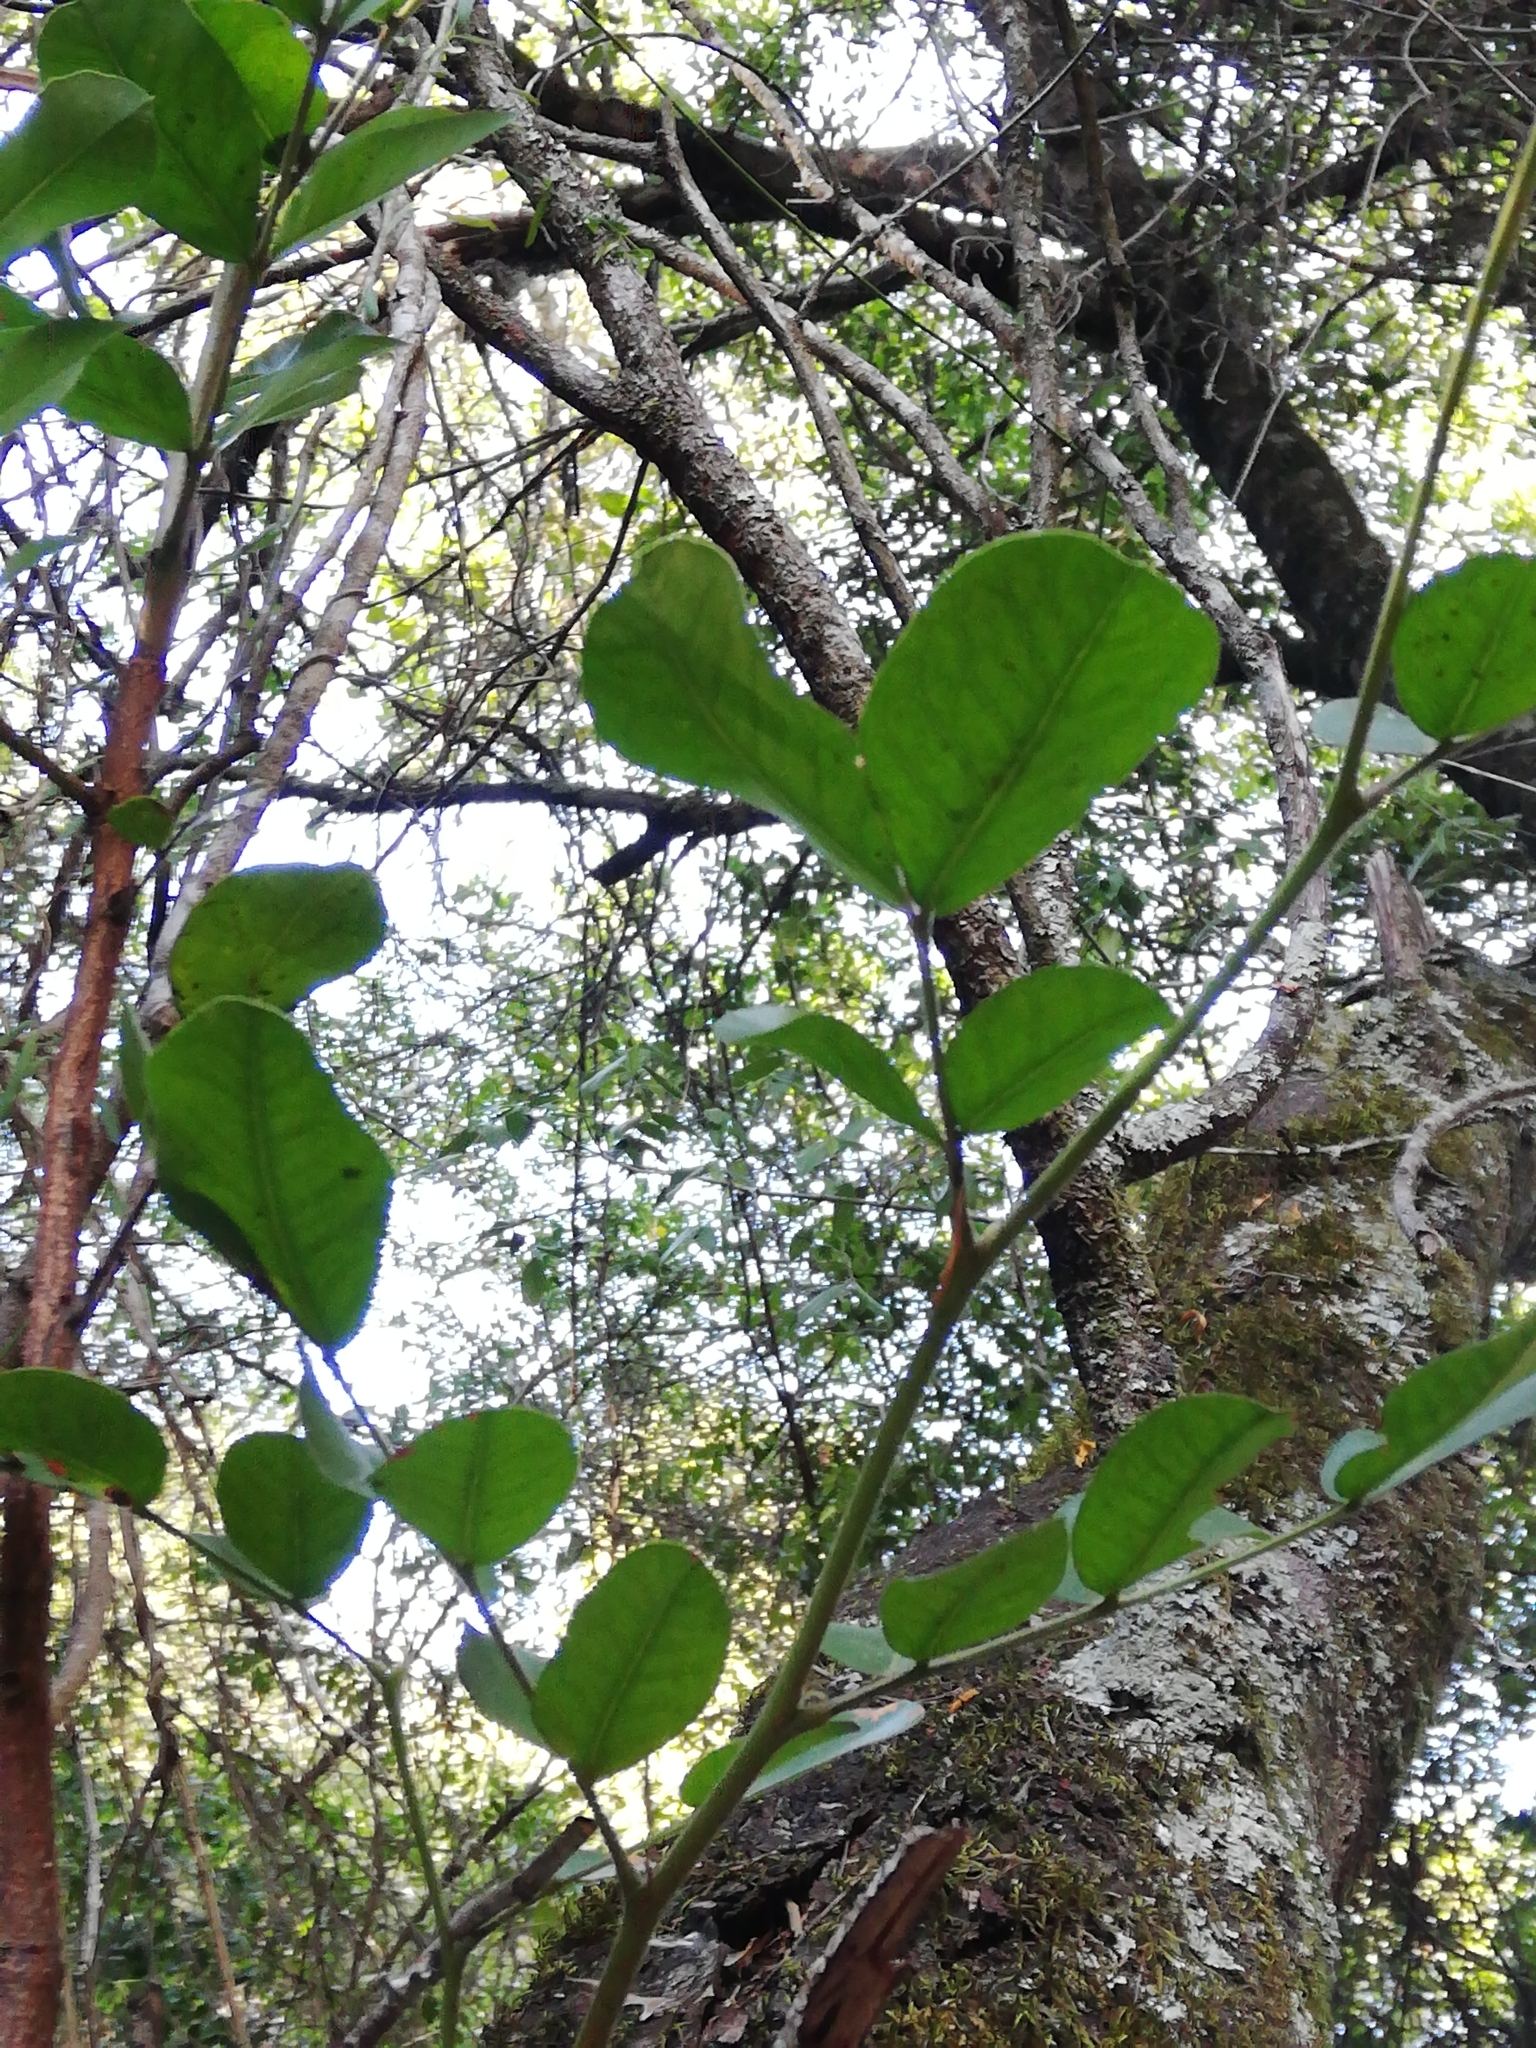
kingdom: Plantae
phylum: Tracheophyta
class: Magnoliopsida
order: Fabales
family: Fabaceae
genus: Schotia
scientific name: Schotia latifolia
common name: Bush boer-bean
